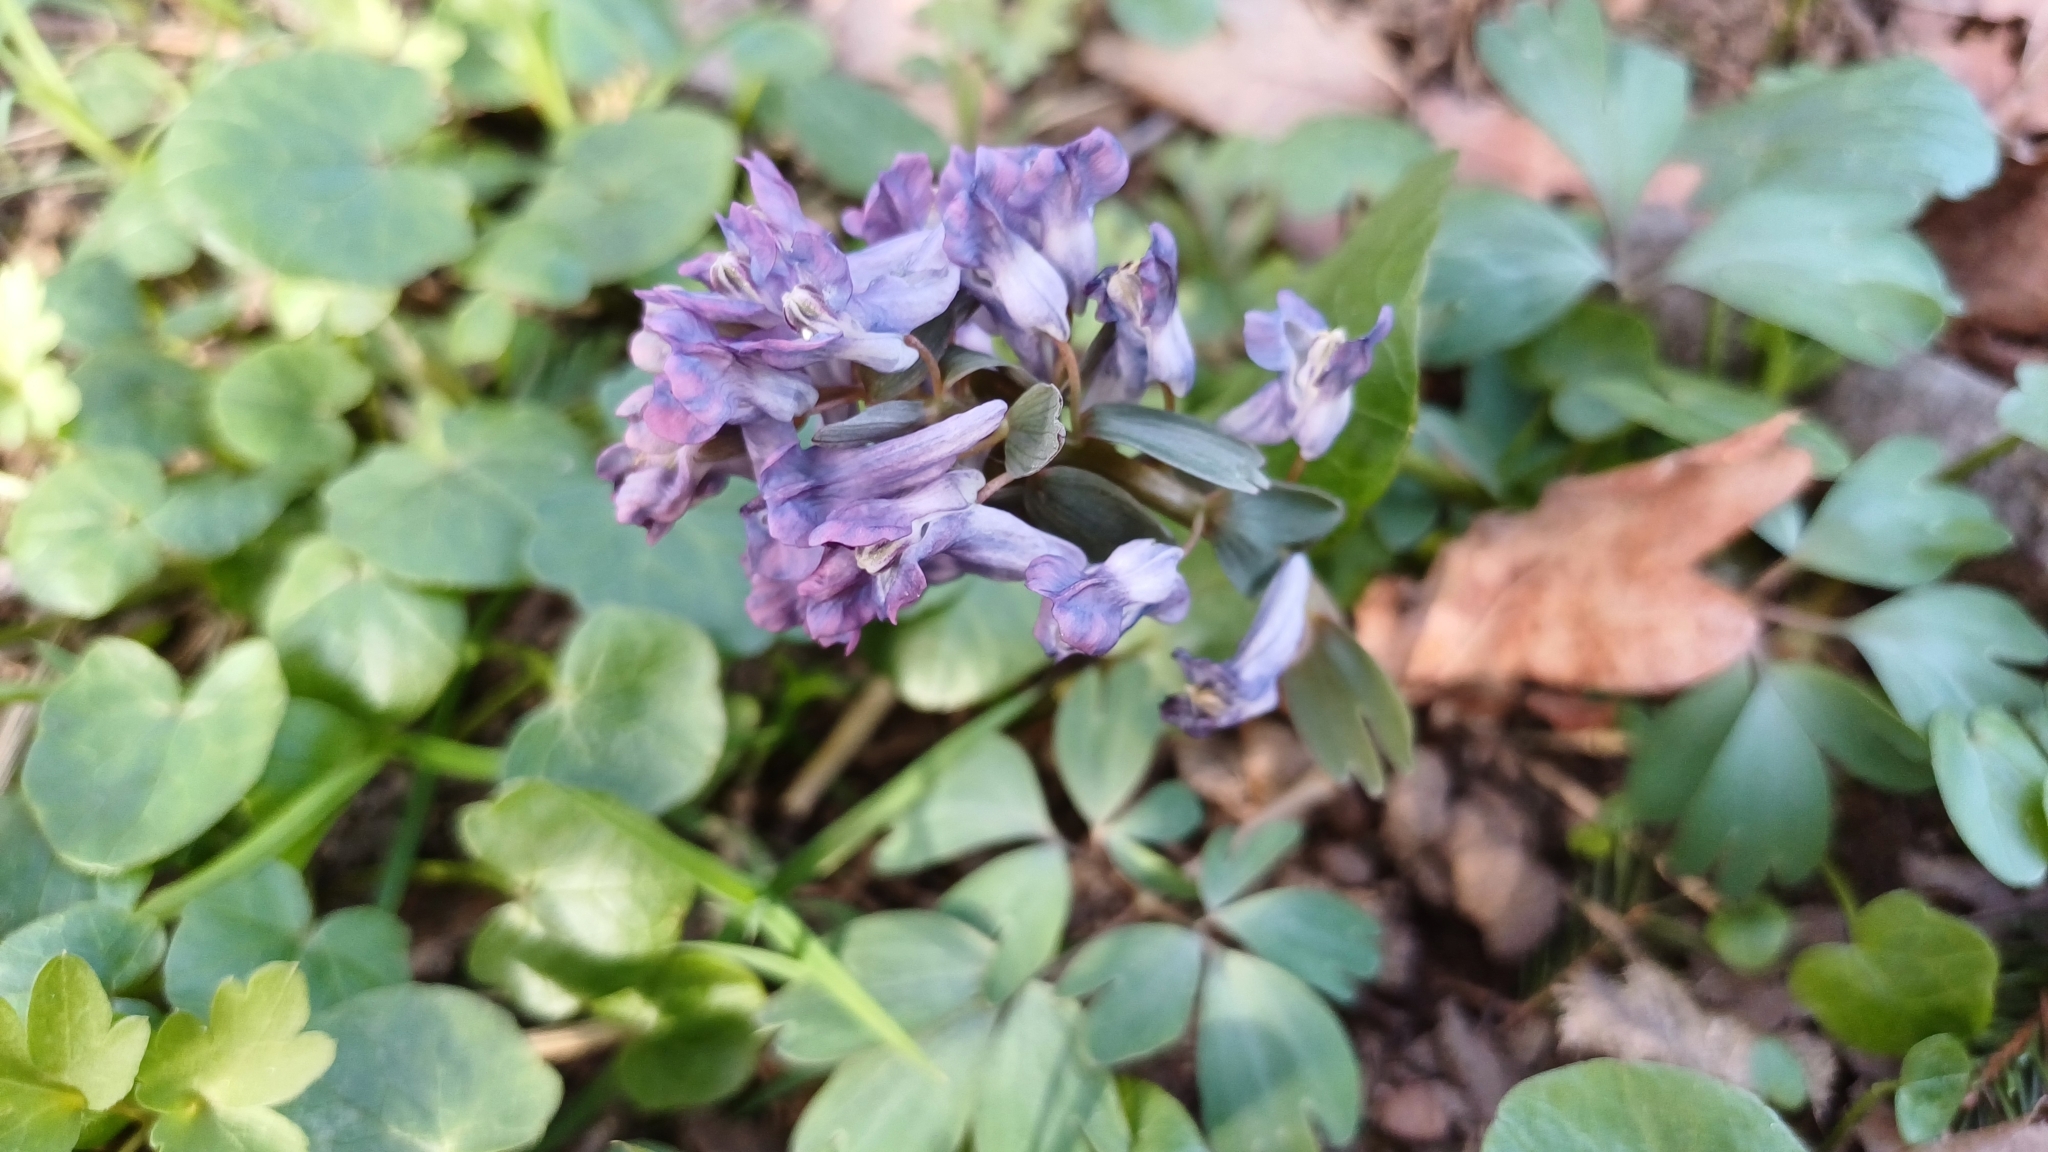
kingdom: Plantae
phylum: Tracheophyta
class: Magnoliopsida
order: Ranunculales
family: Papaveraceae
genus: Corydalis
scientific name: Corydalis solida
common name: Bird-in-a-bush
